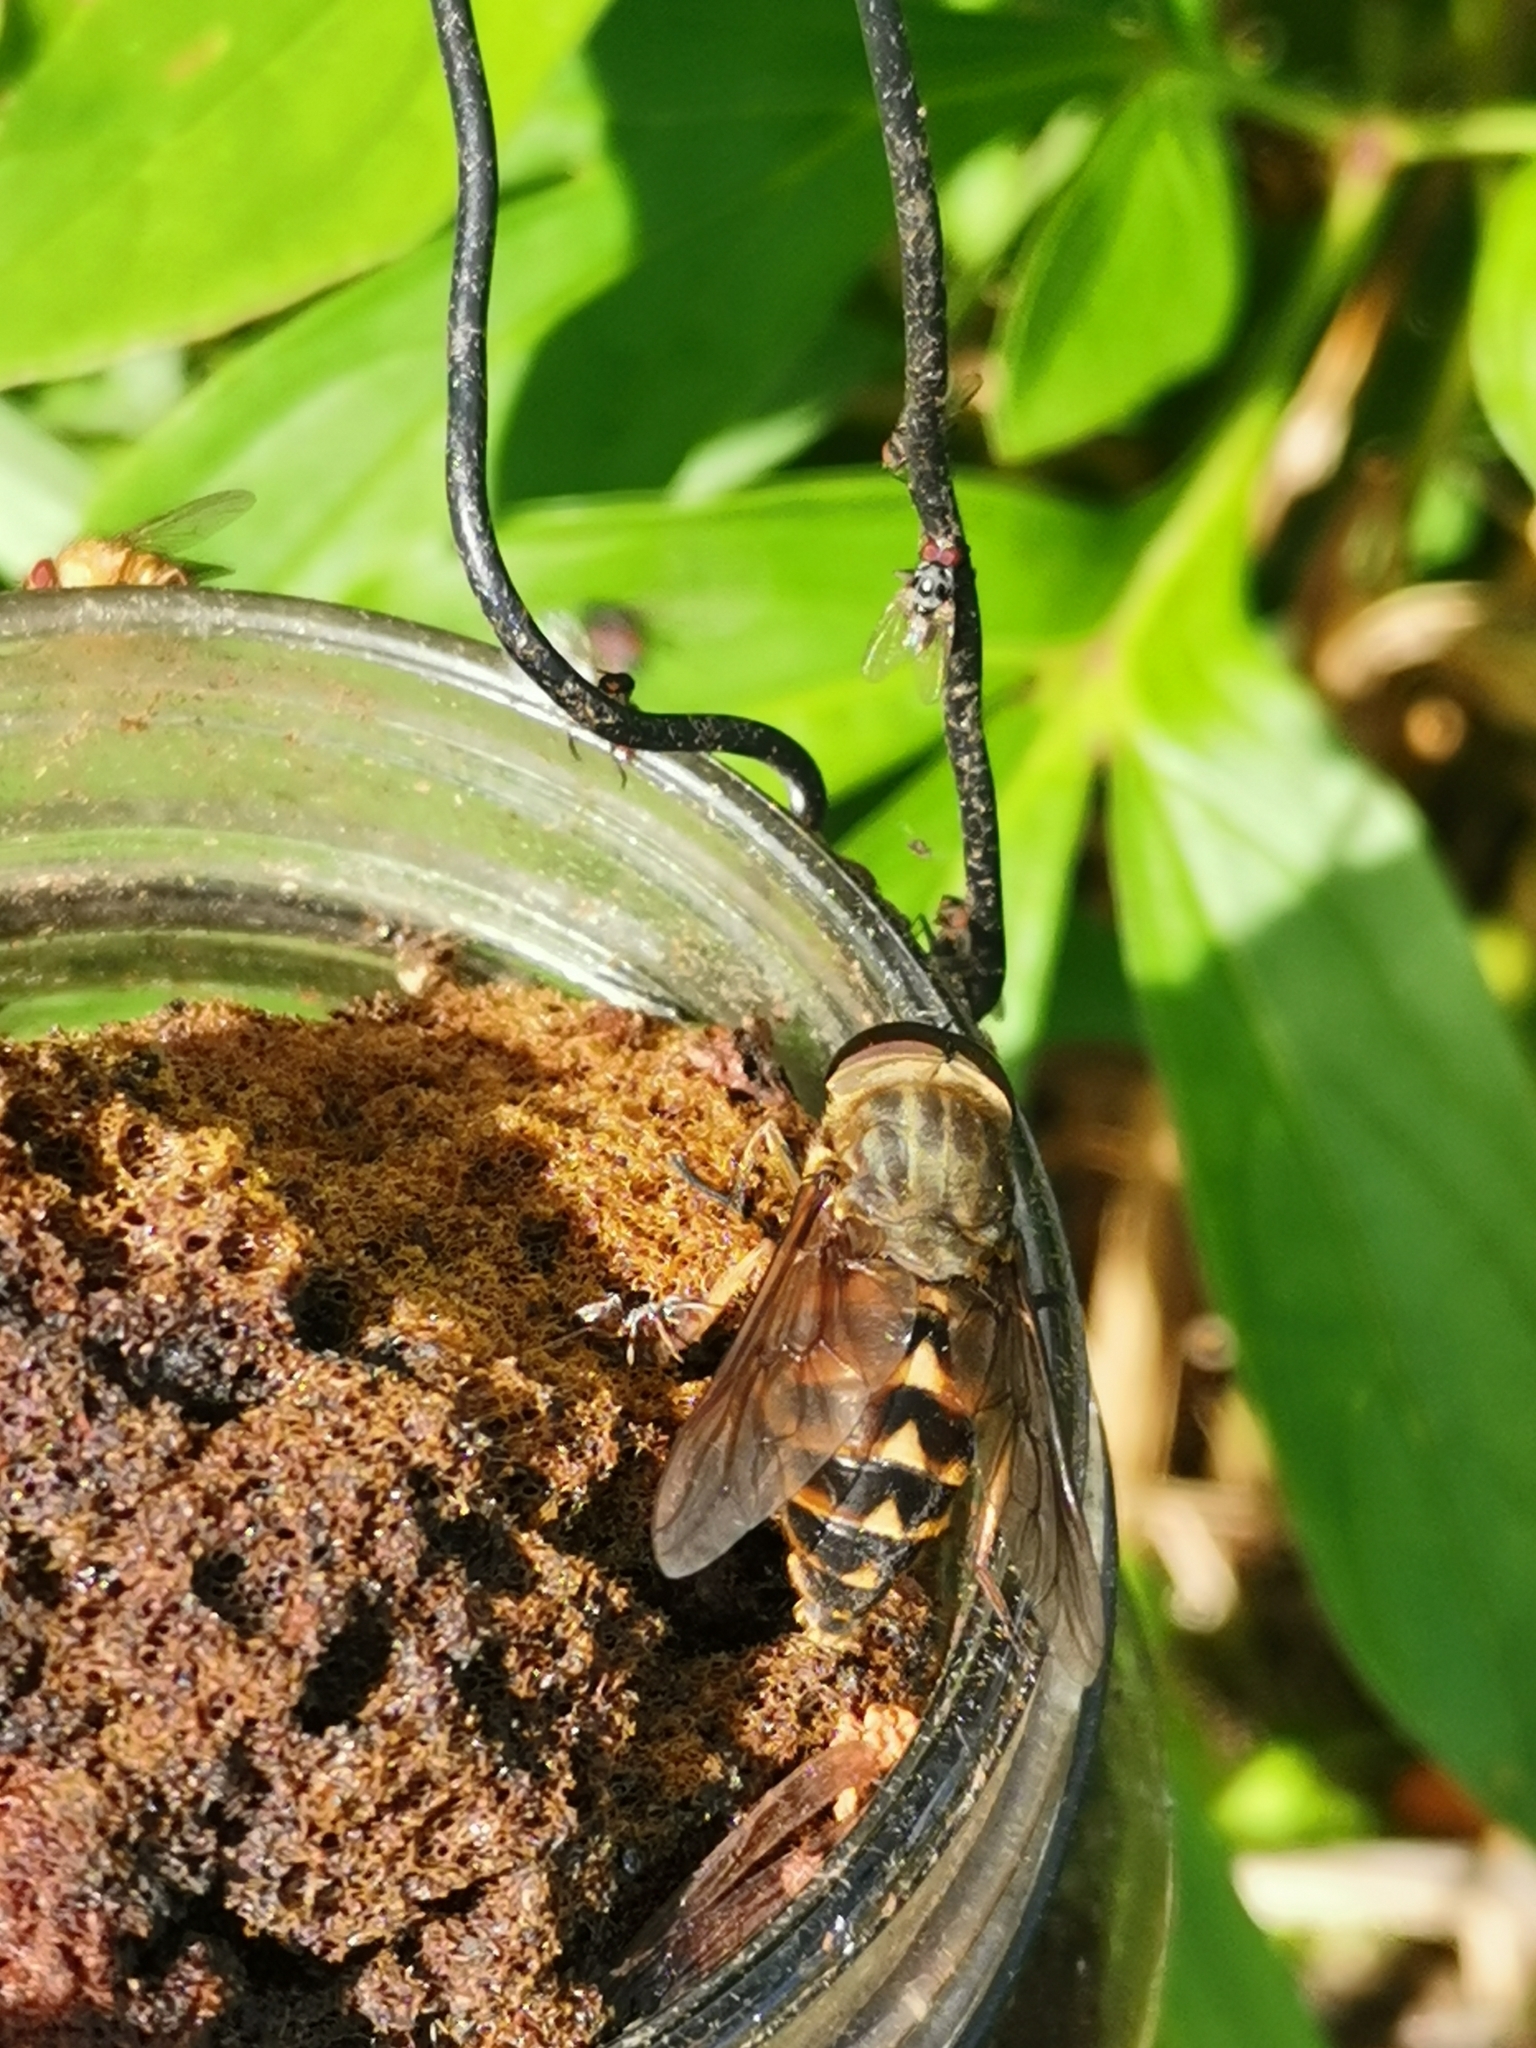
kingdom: Animalia
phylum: Arthropoda
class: Insecta
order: Diptera
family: Tabanidae
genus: Tabanus
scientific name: Tabanus sudeticus
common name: Dark giant horsefly
